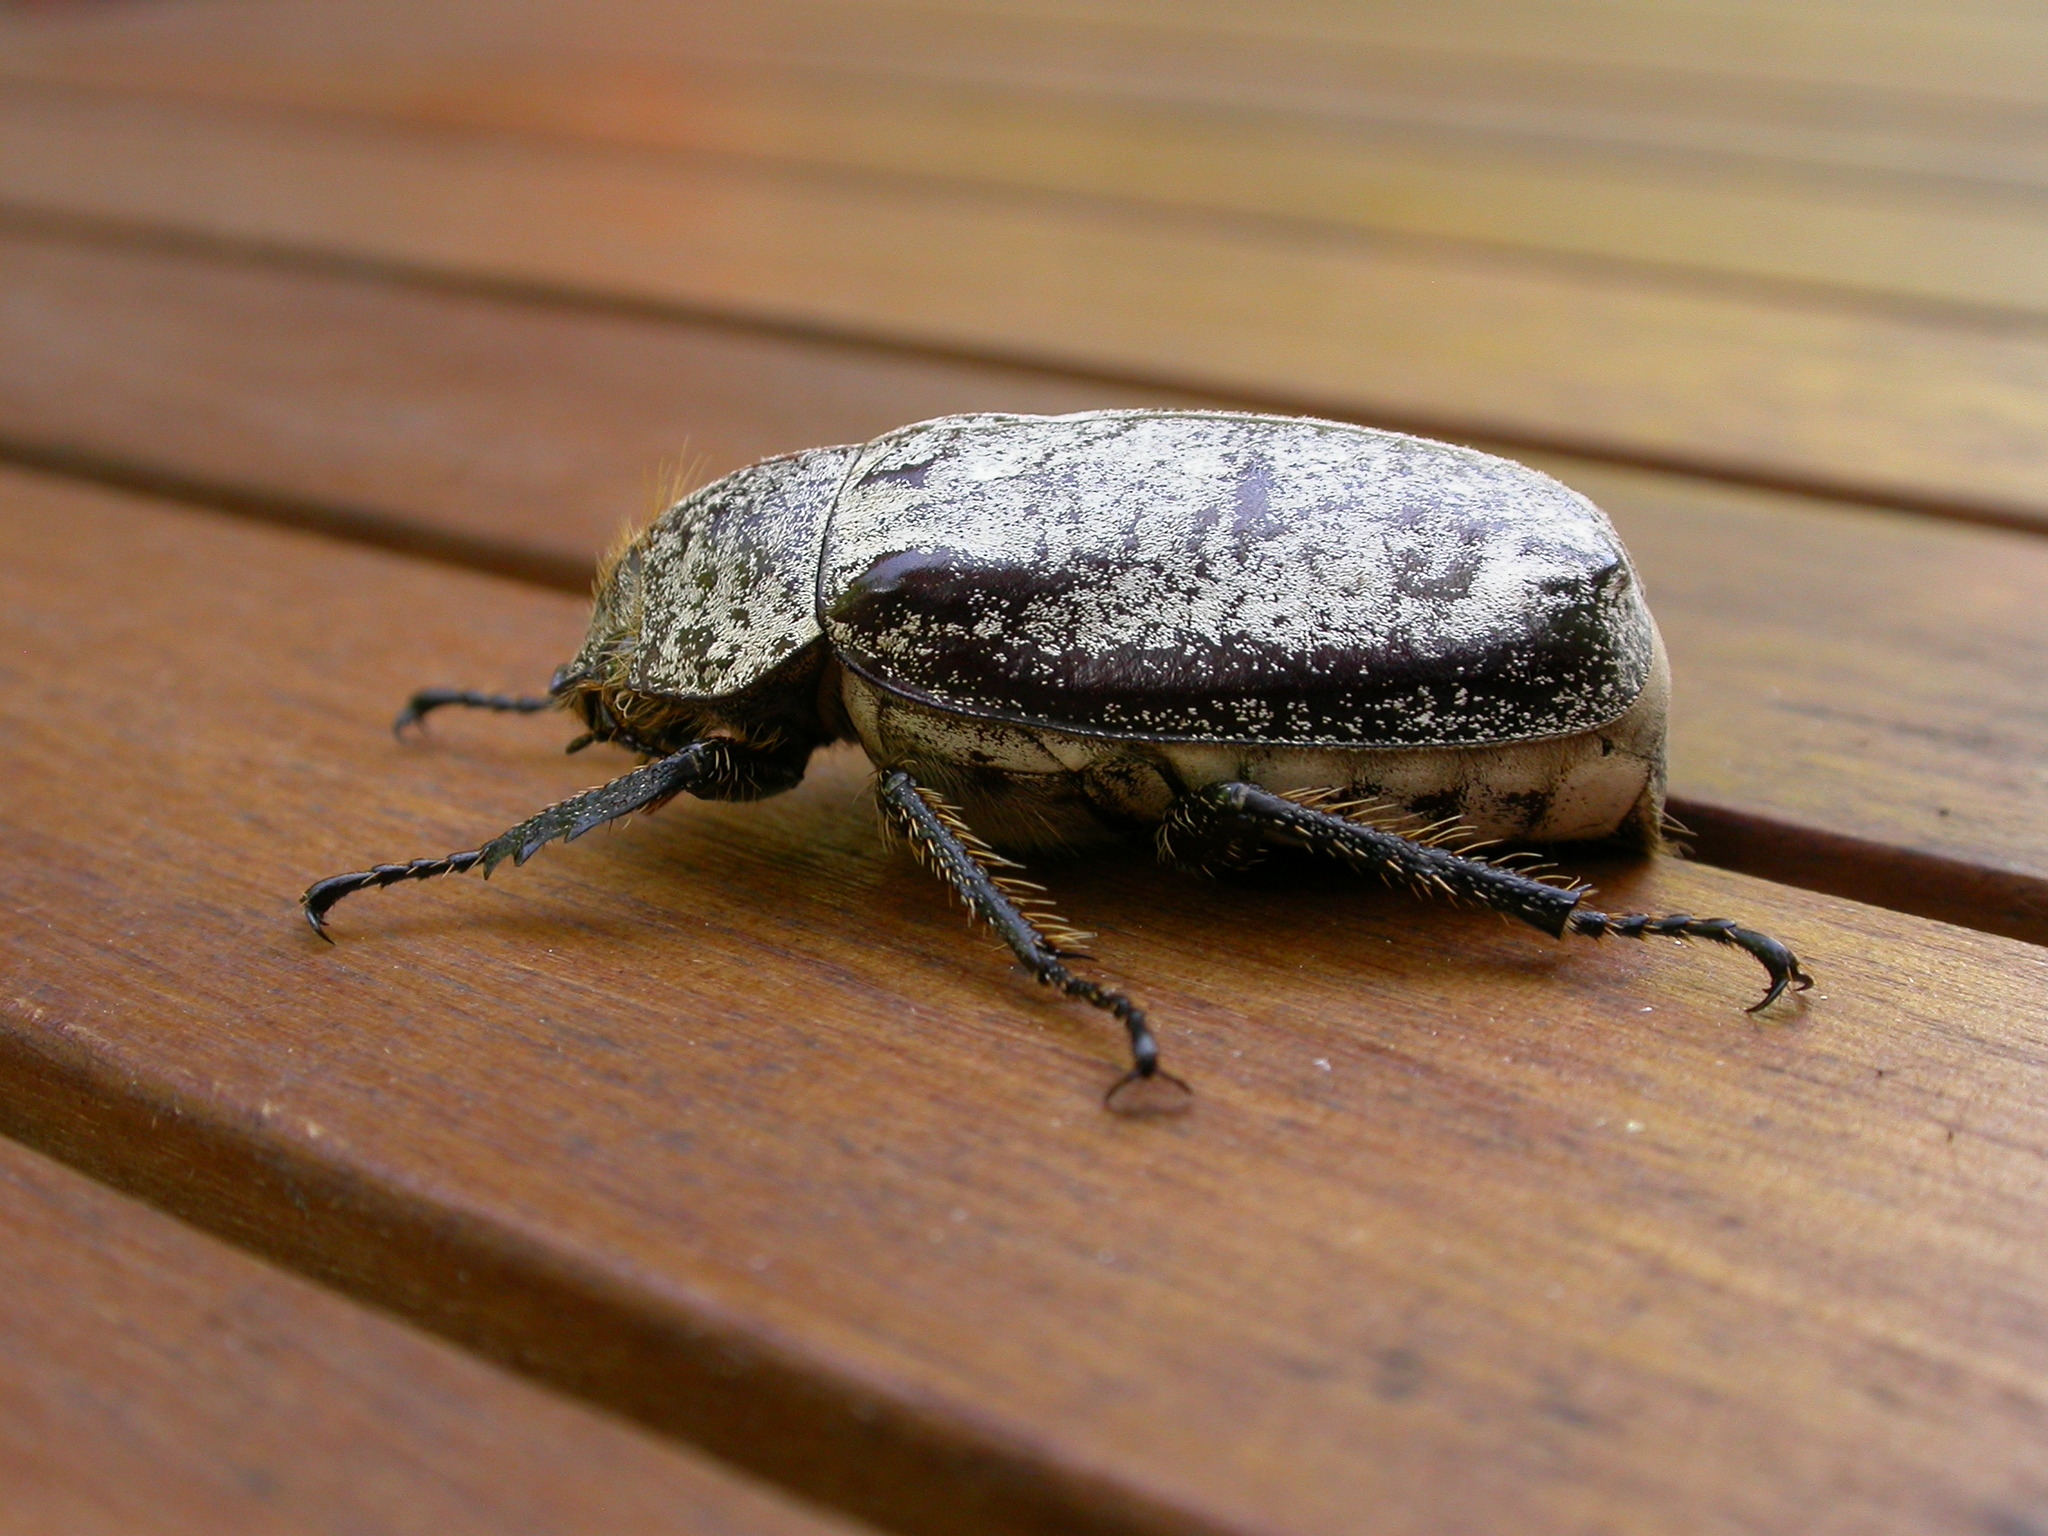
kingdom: Animalia
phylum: Arthropoda
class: Insecta
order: Coleoptera
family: Scarabaeidae
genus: Dermolepida
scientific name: Dermolepida albohirtum
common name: Greyback cane beetle
